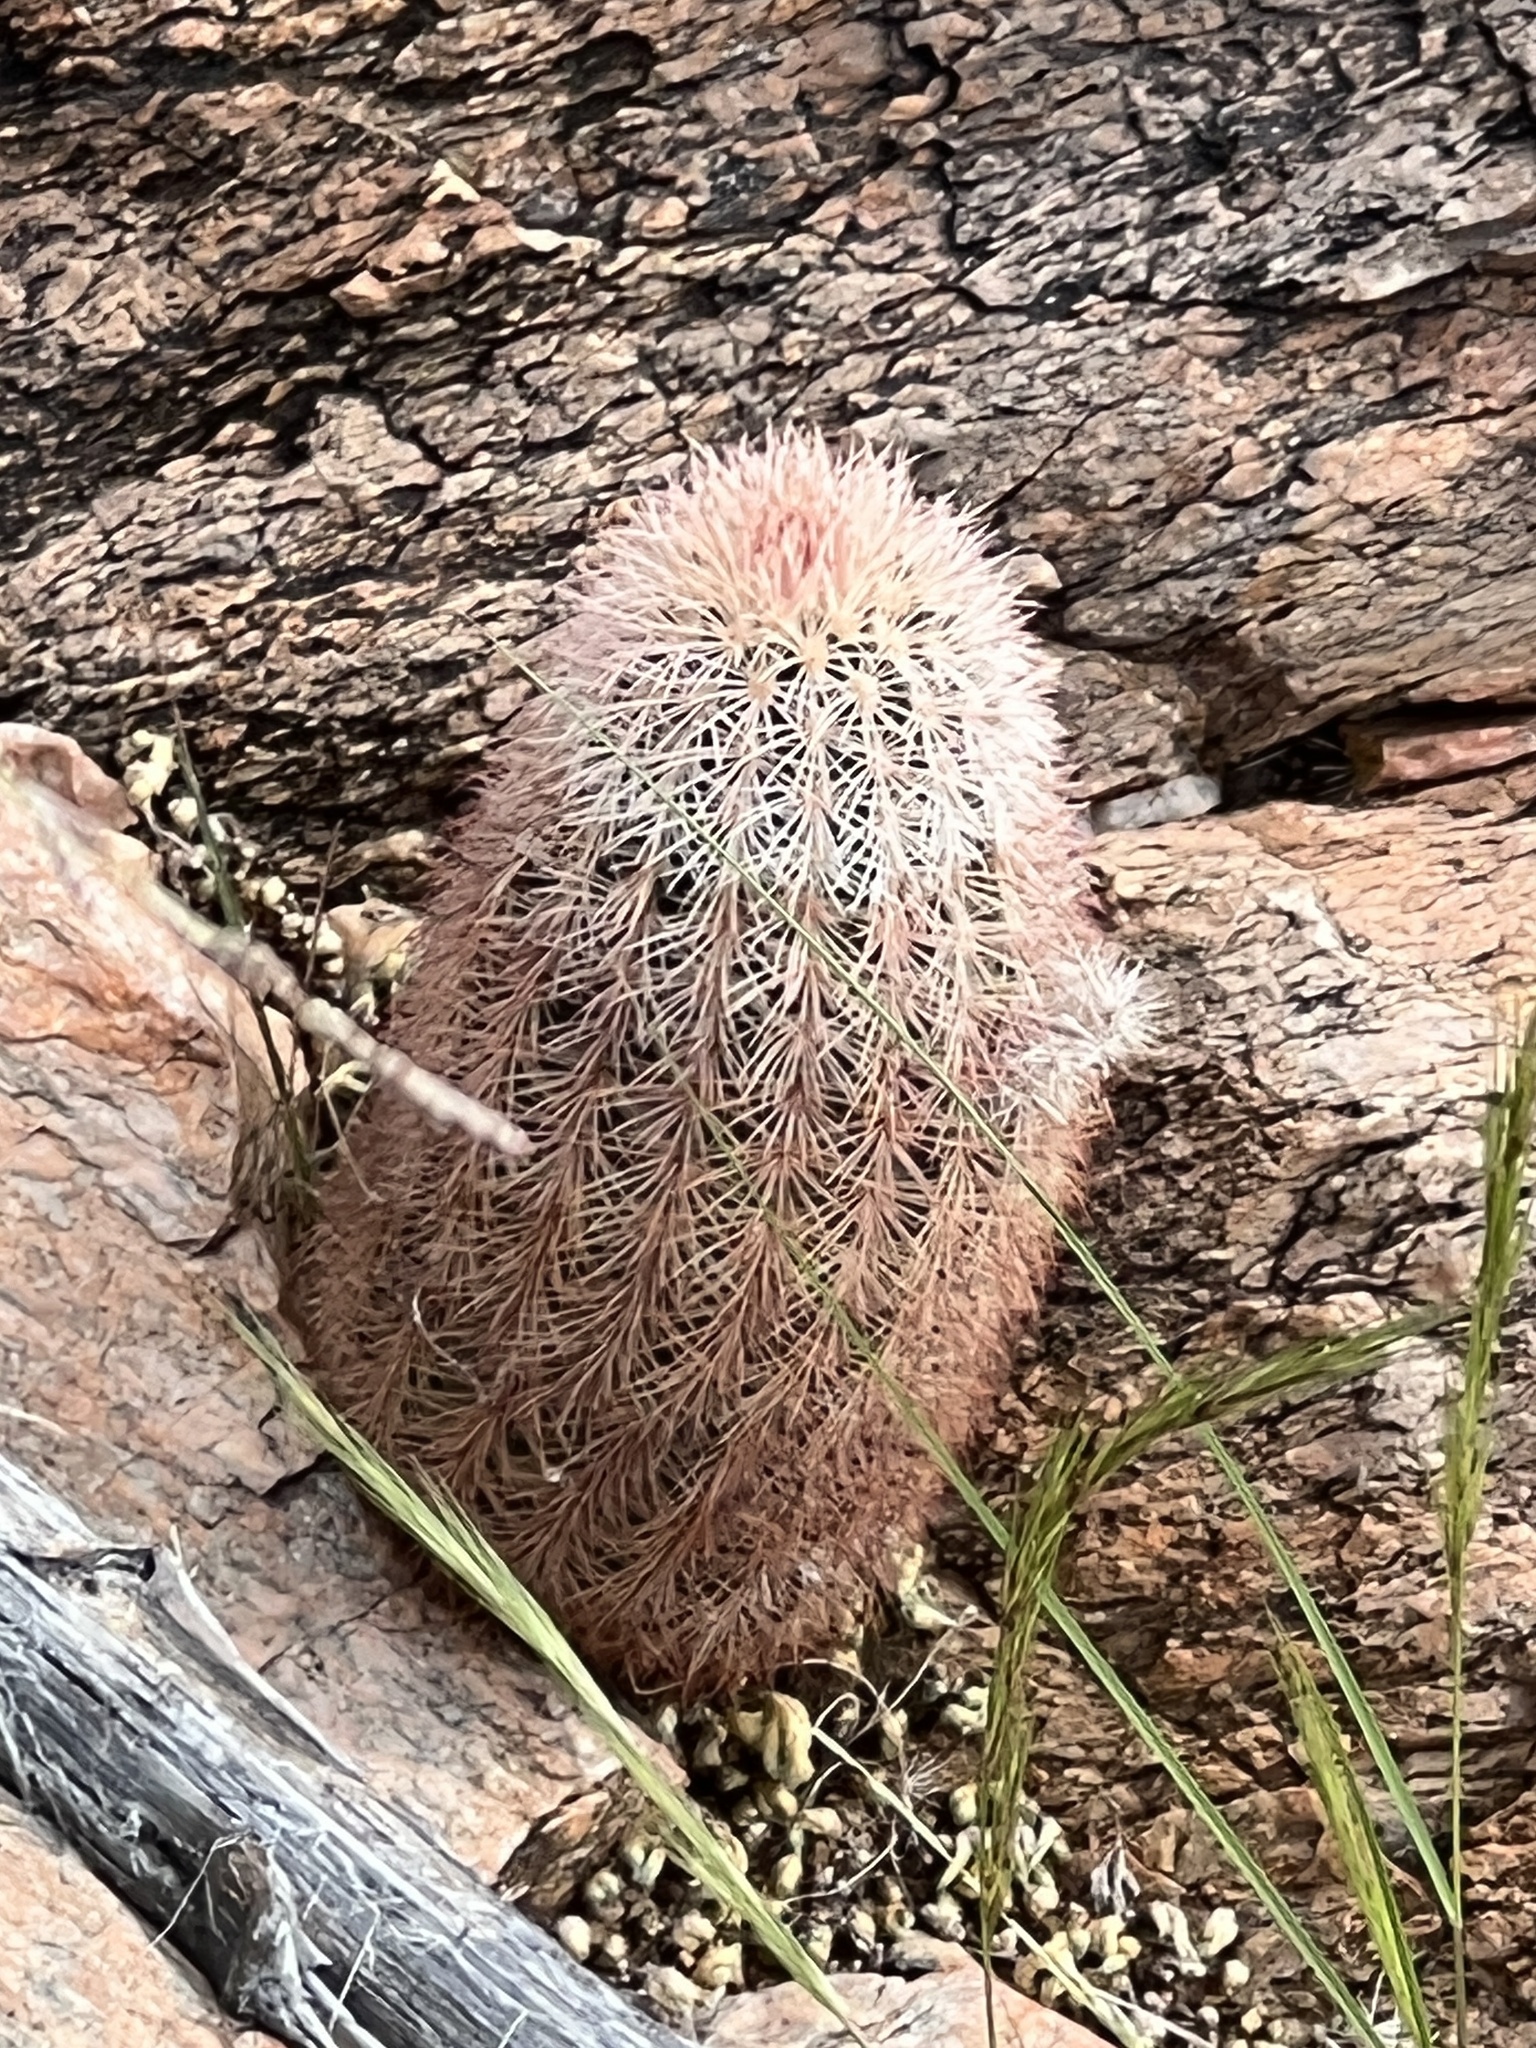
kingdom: Plantae
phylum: Tracheophyta
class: Magnoliopsida
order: Caryophyllales
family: Cactaceae
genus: Echinocereus
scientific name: Echinocereus dasyacanthus
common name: Spiny hedgehog cactus
